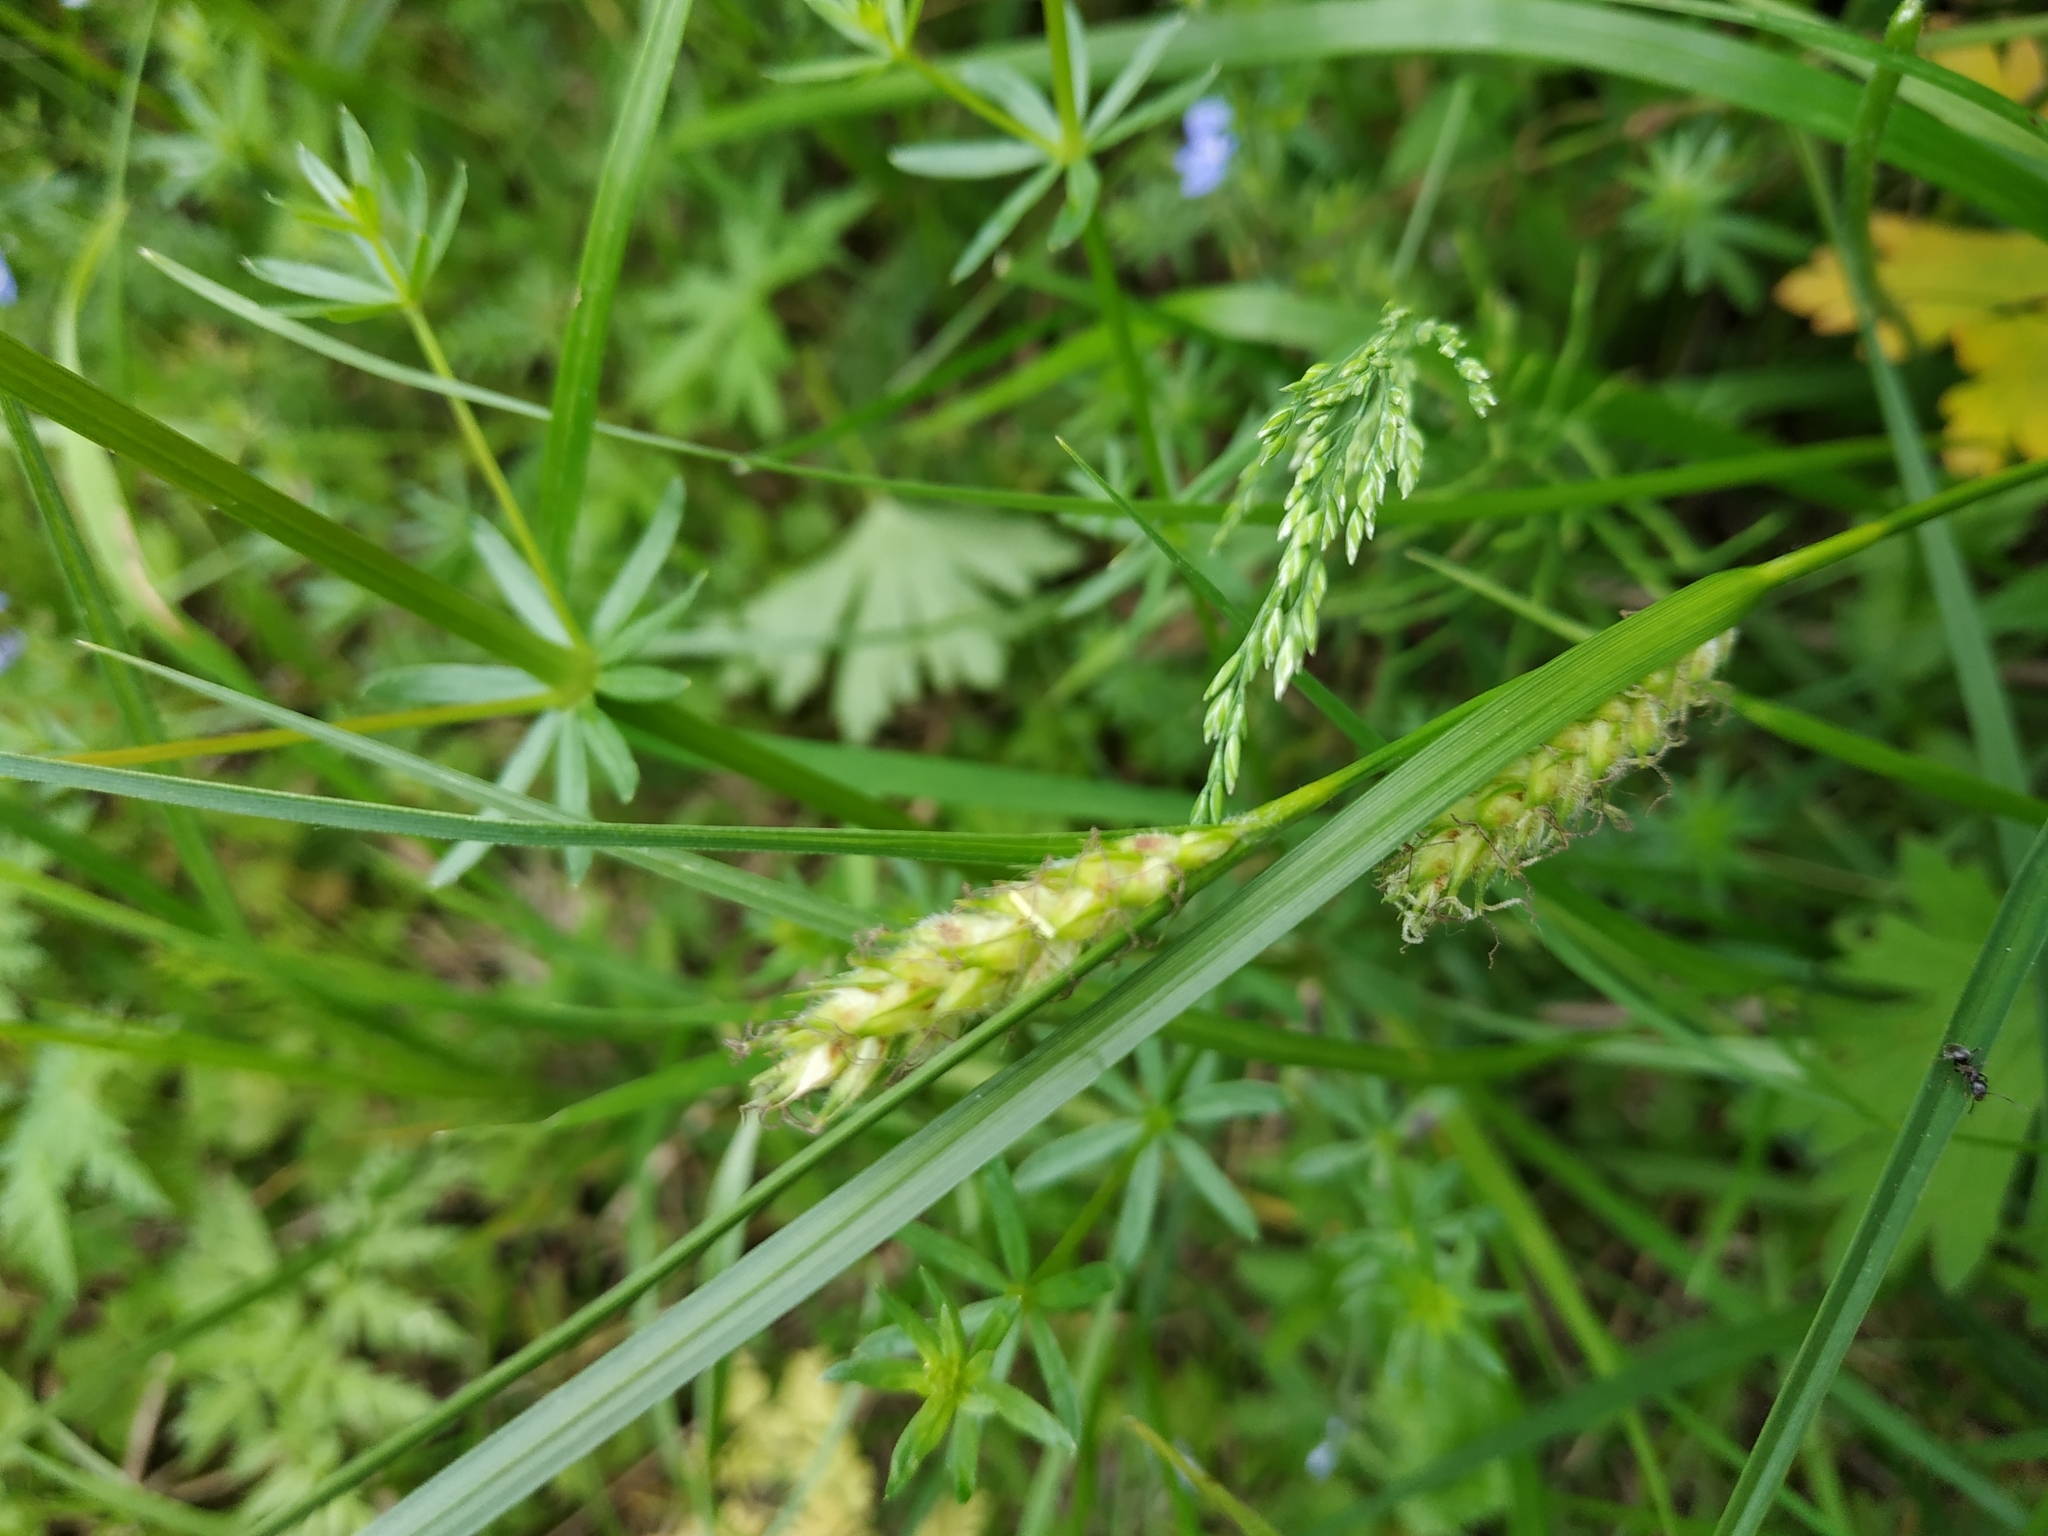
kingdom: Plantae
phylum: Tracheophyta
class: Liliopsida
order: Poales
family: Cyperaceae
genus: Carex
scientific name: Carex hirta
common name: Hairy sedge
